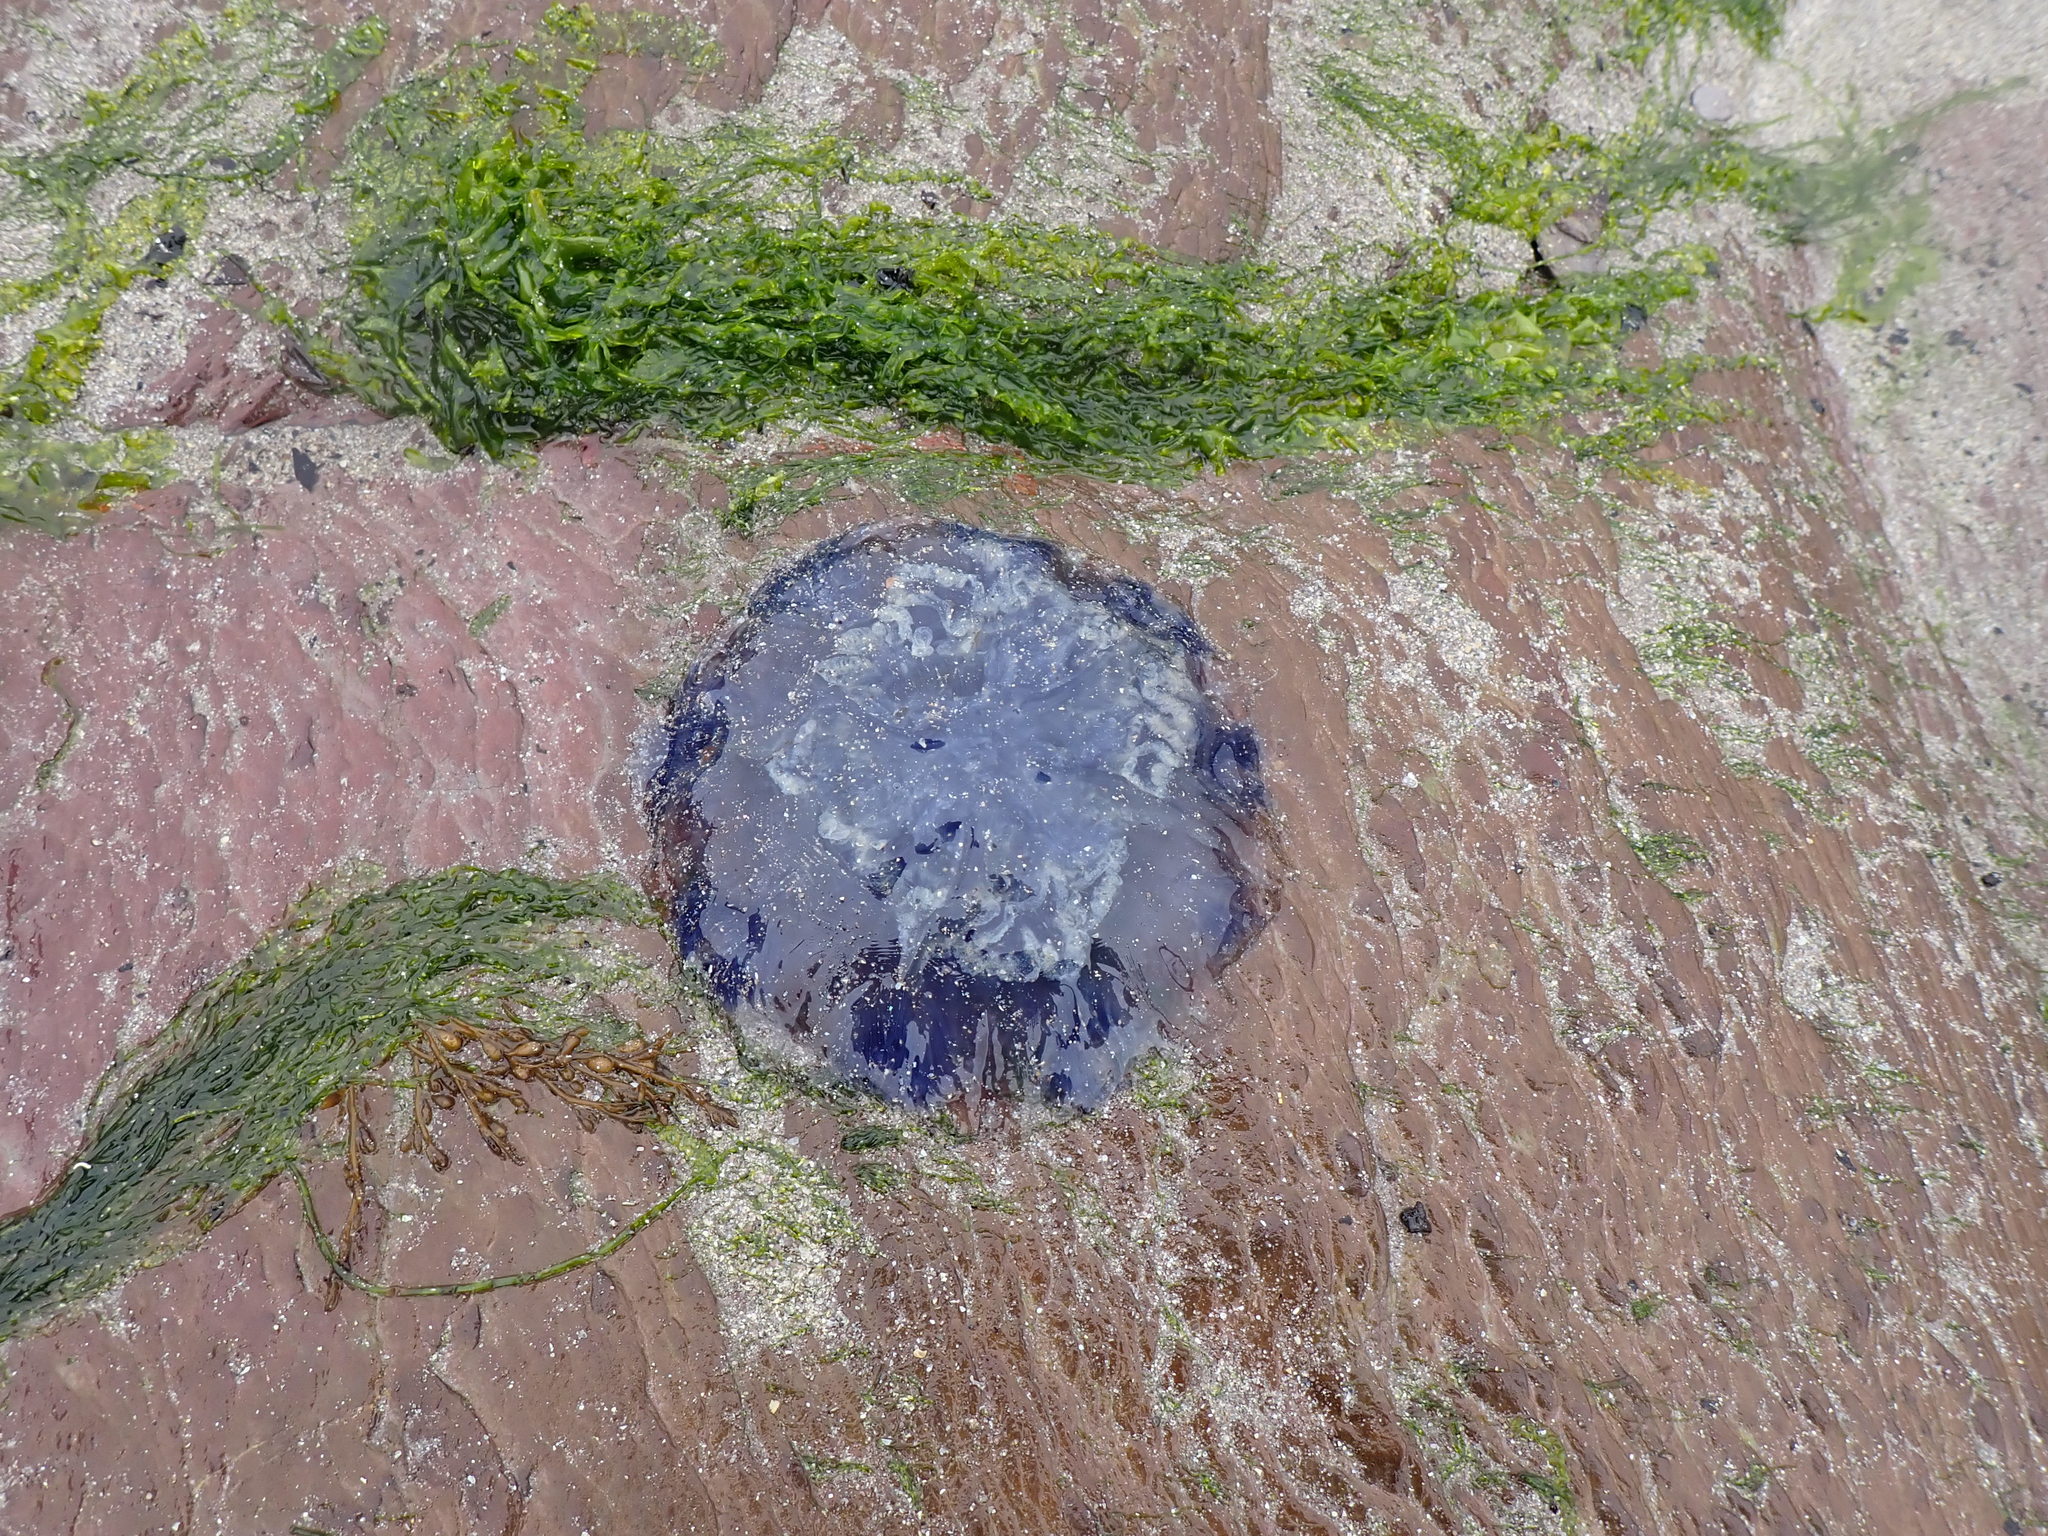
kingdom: Animalia
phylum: Cnidaria
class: Scyphozoa
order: Semaeostomeae
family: Cyaneidae
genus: Cyanea
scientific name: Cyanea lamarckii
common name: Blue jellyfish
